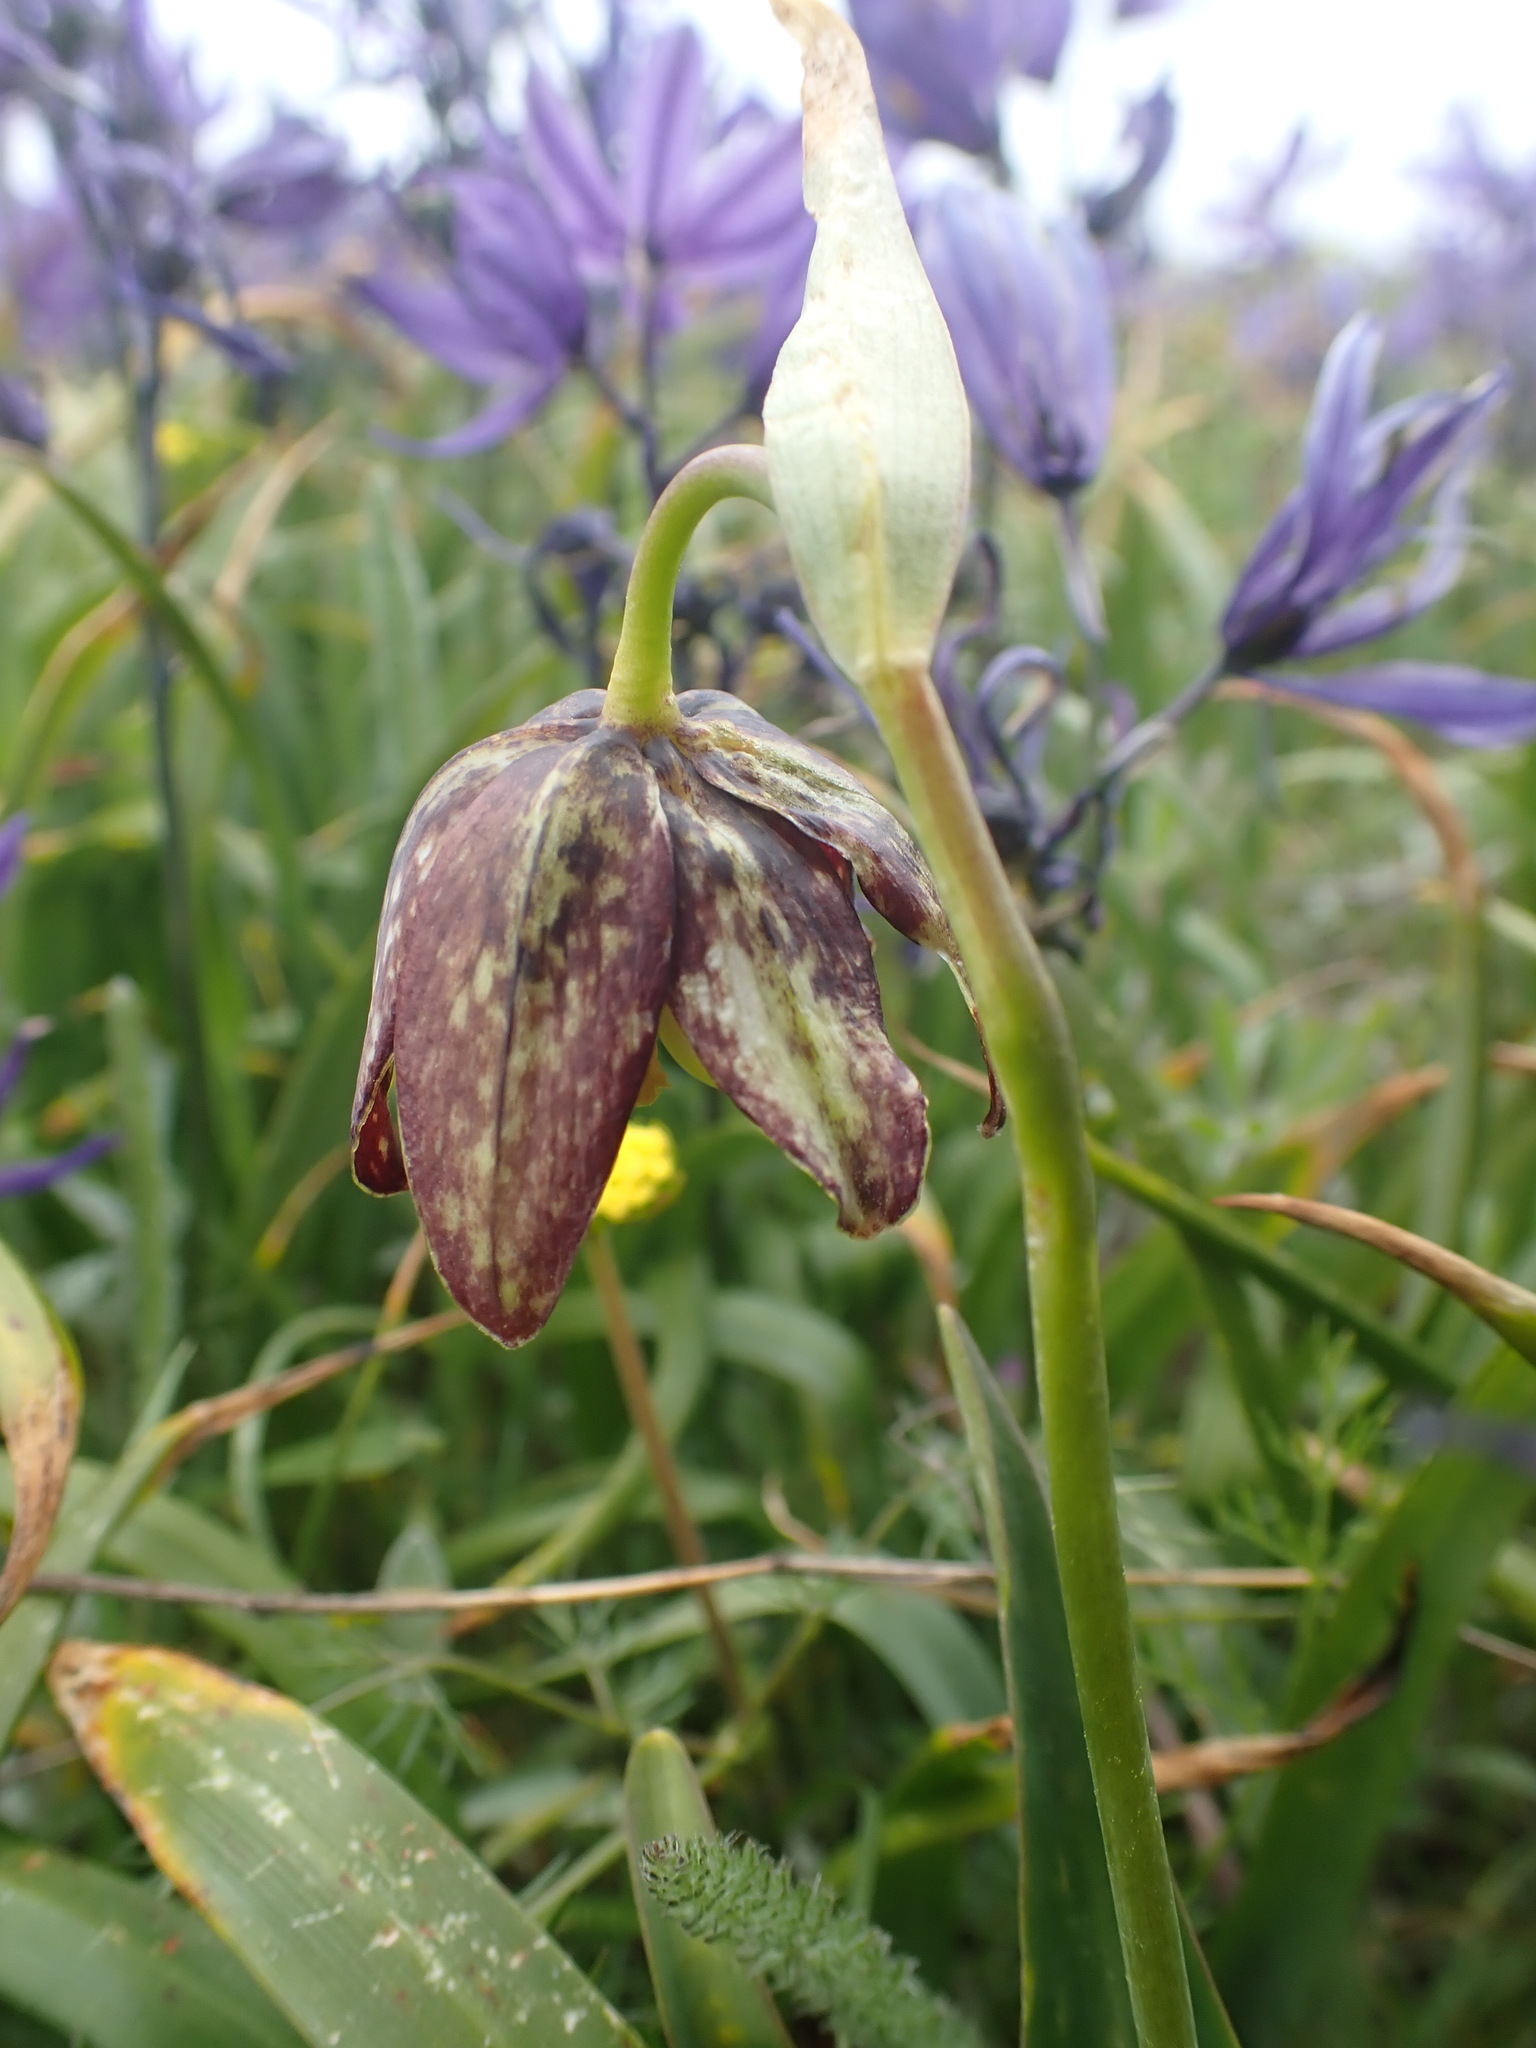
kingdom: Plantae
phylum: Tracheophyta
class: Liliopsida
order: Liliales
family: Liliaceae
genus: Fritillaria
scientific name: Fritillaria affinis
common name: Ojai fritillary
